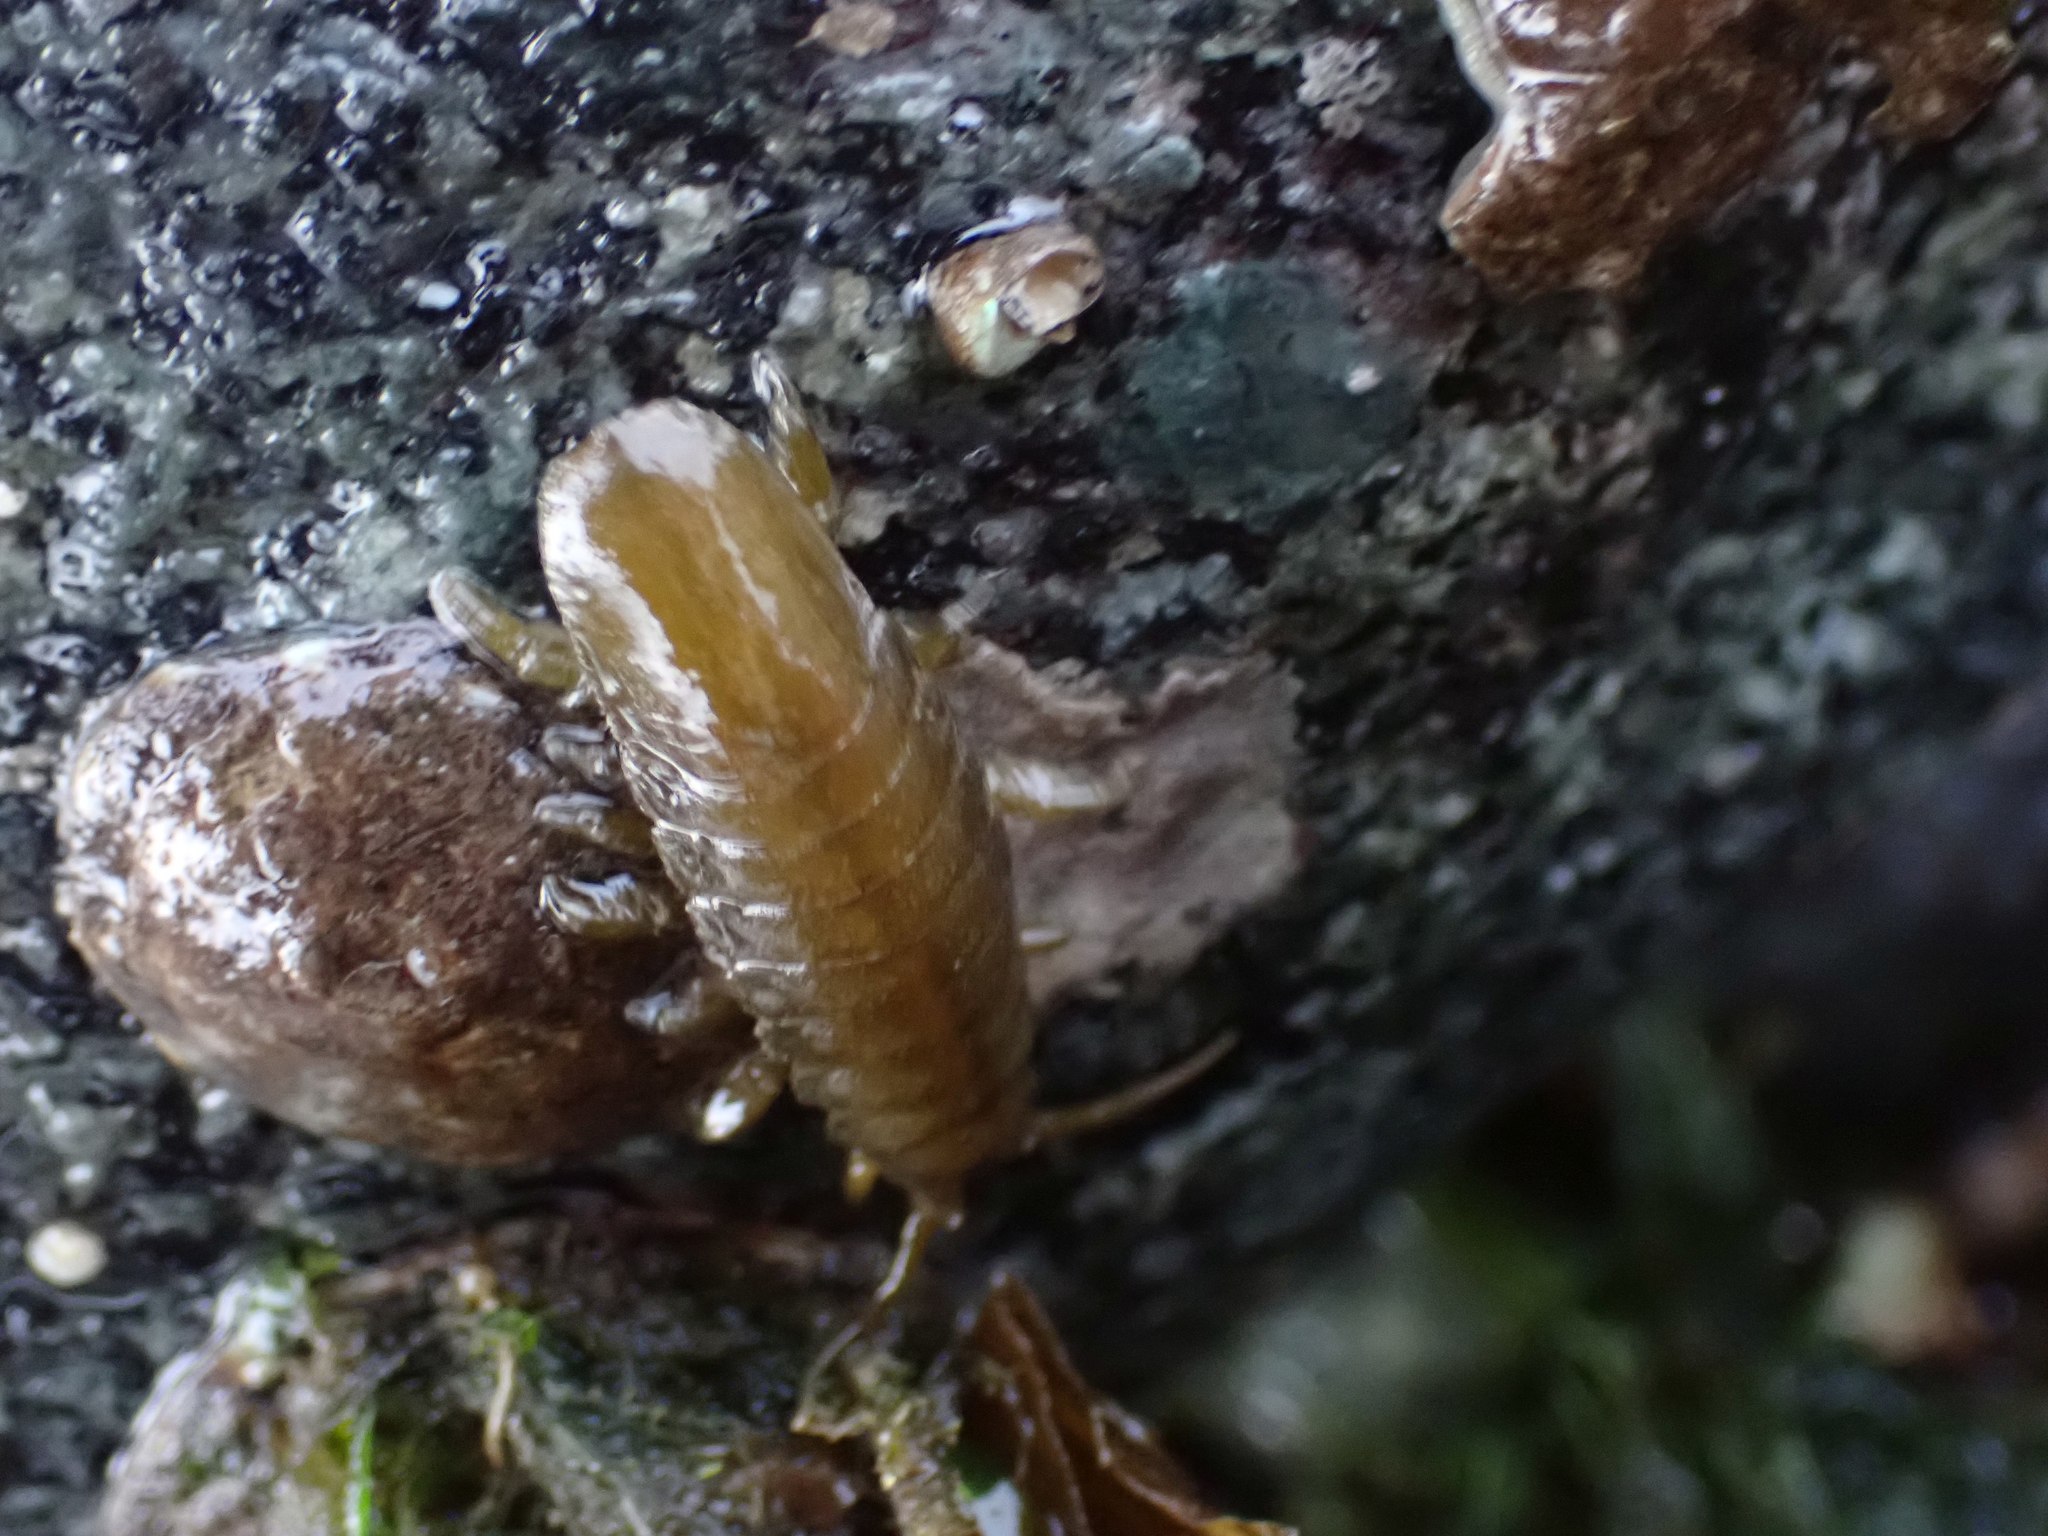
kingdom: Animalia
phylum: Arthropoda
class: Malacostraca
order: Isopoda
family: Idoteidae
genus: Pentidotea
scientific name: Pentidotea wosnesenskii
